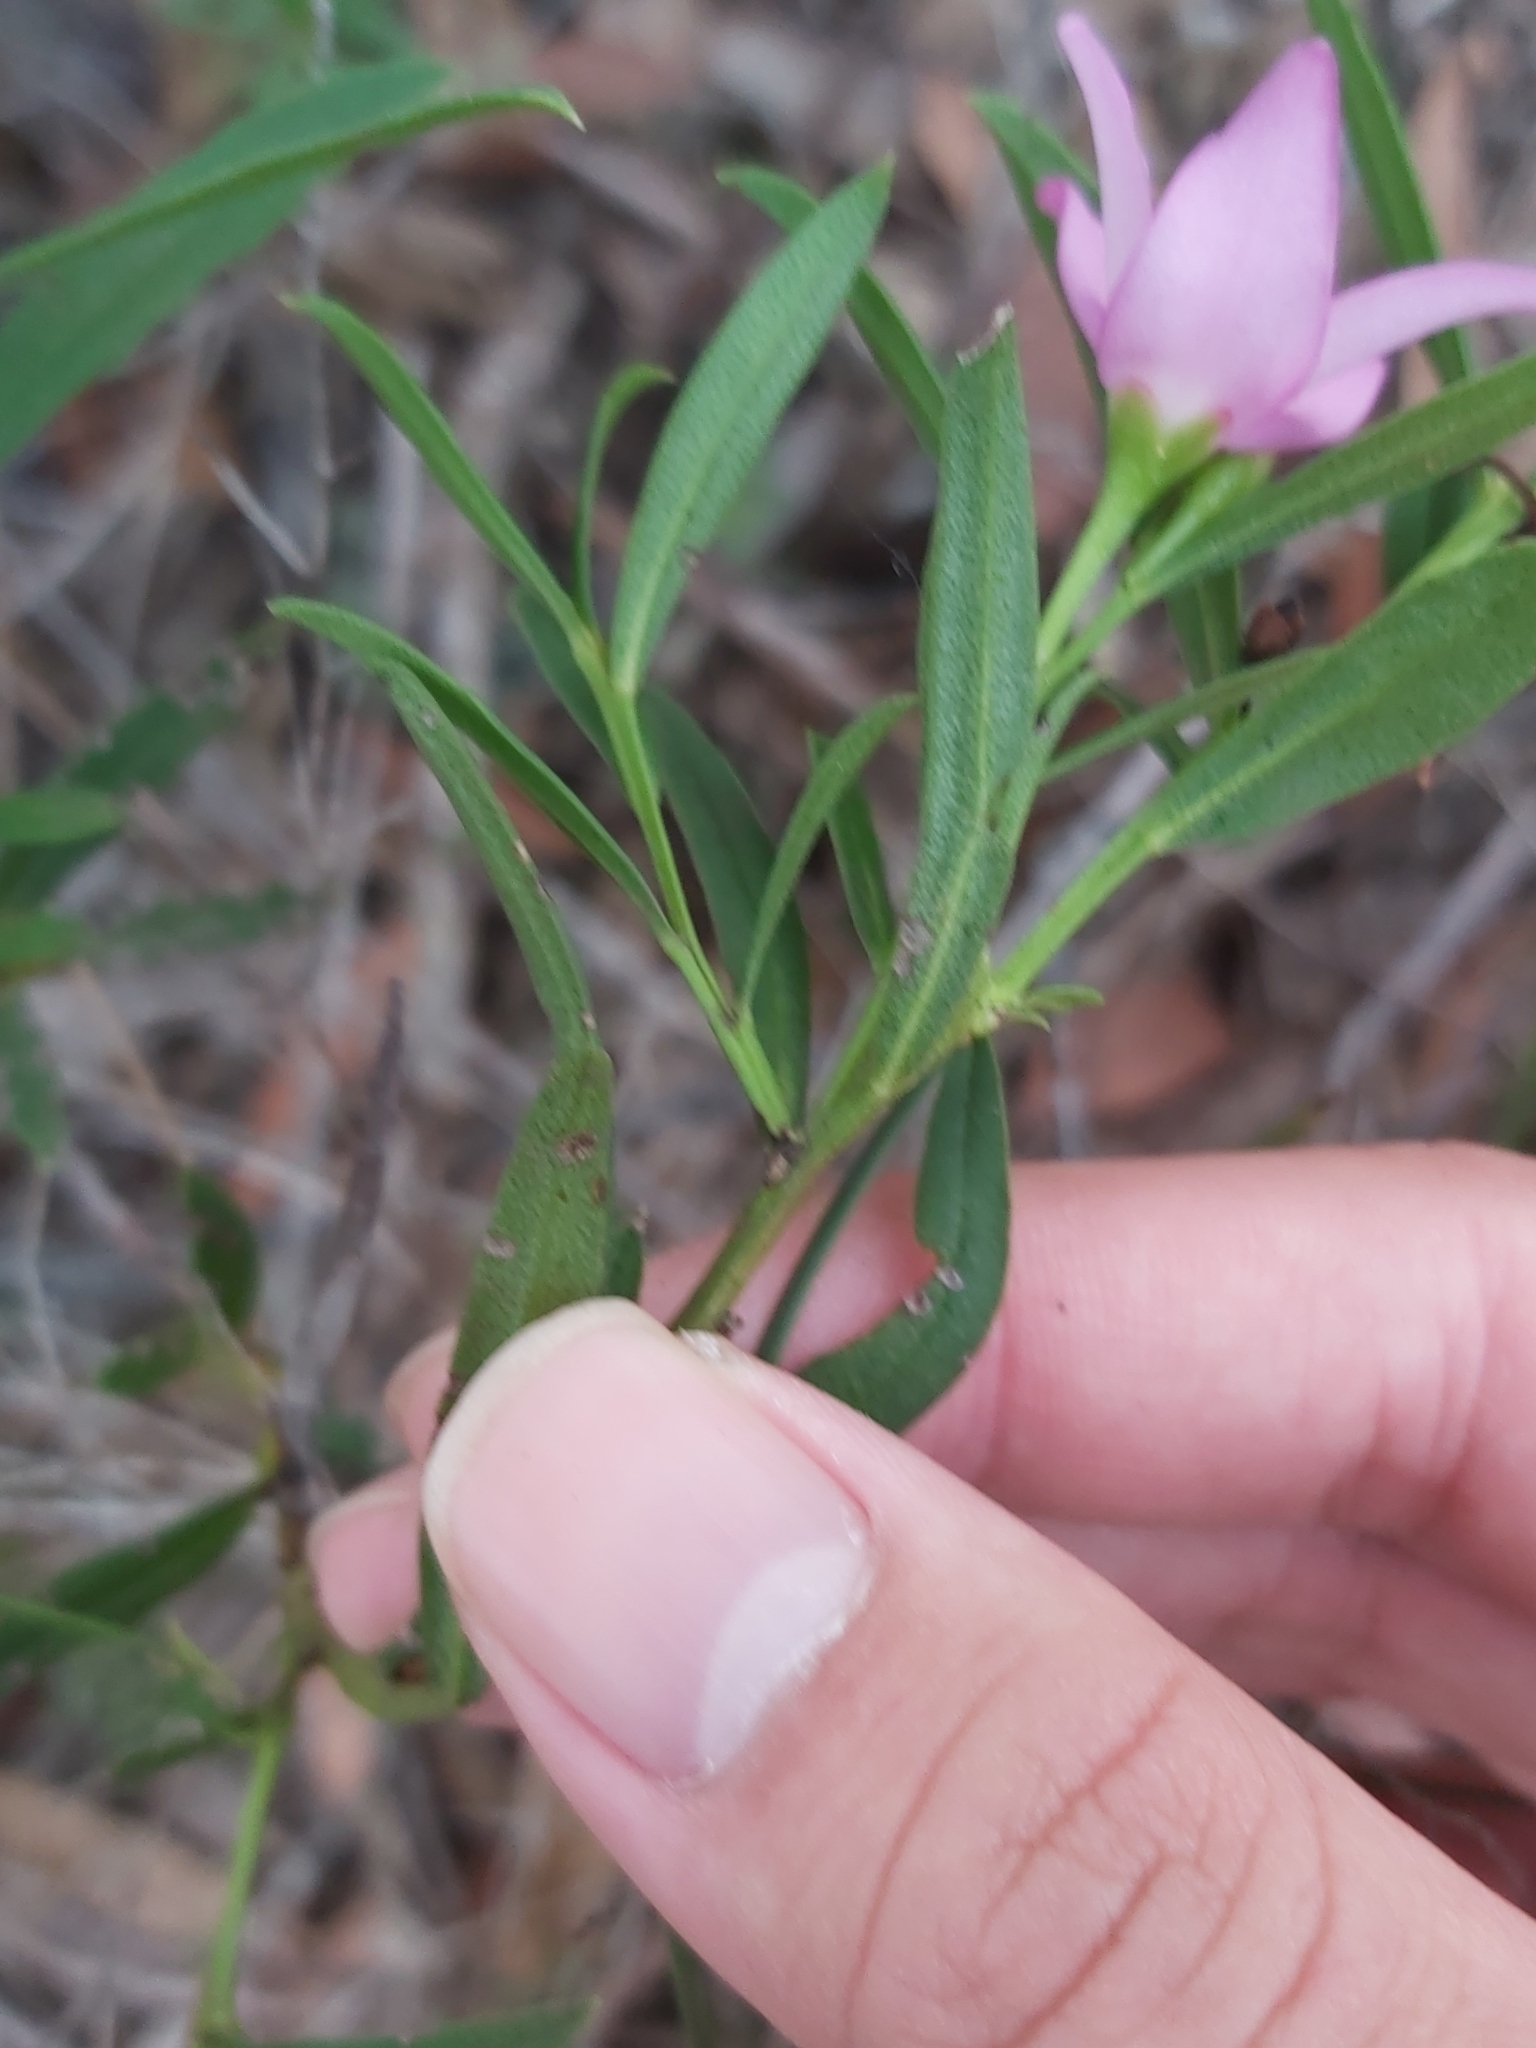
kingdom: Plantae
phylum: Tracheophyta
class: Magnoliopsida
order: Sapindales
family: Rutaceae
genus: Crowea
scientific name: Crowea saligna
